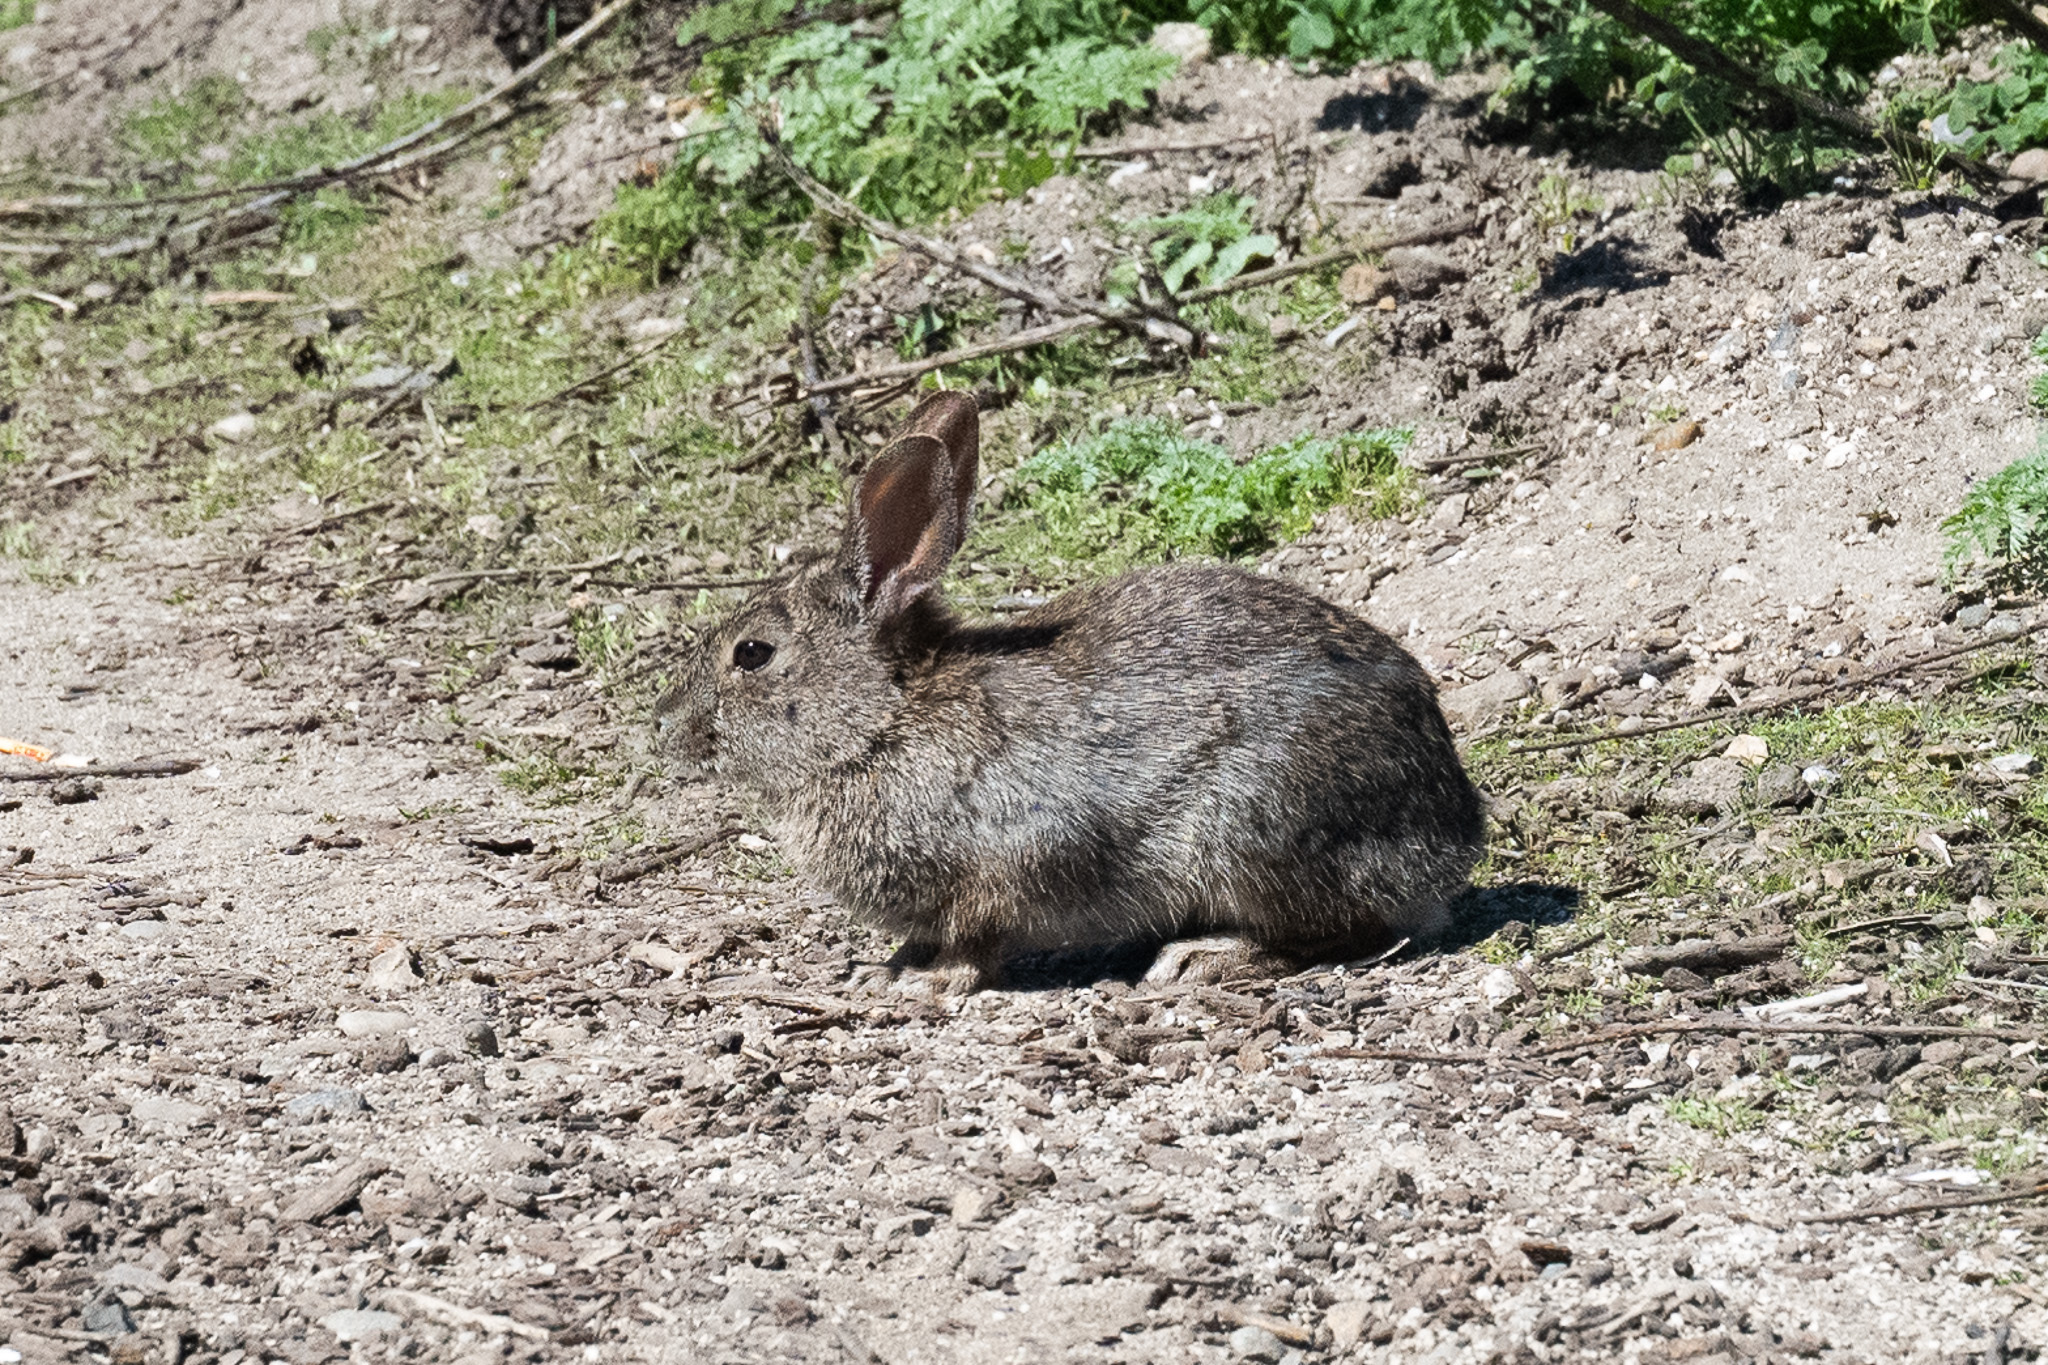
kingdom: Animalia
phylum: Chordata
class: Mammalia
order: Lagomorpha
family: Leporidae
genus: Sylvilagus
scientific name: Sylvilagus bachmani
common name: Brush rabbit
